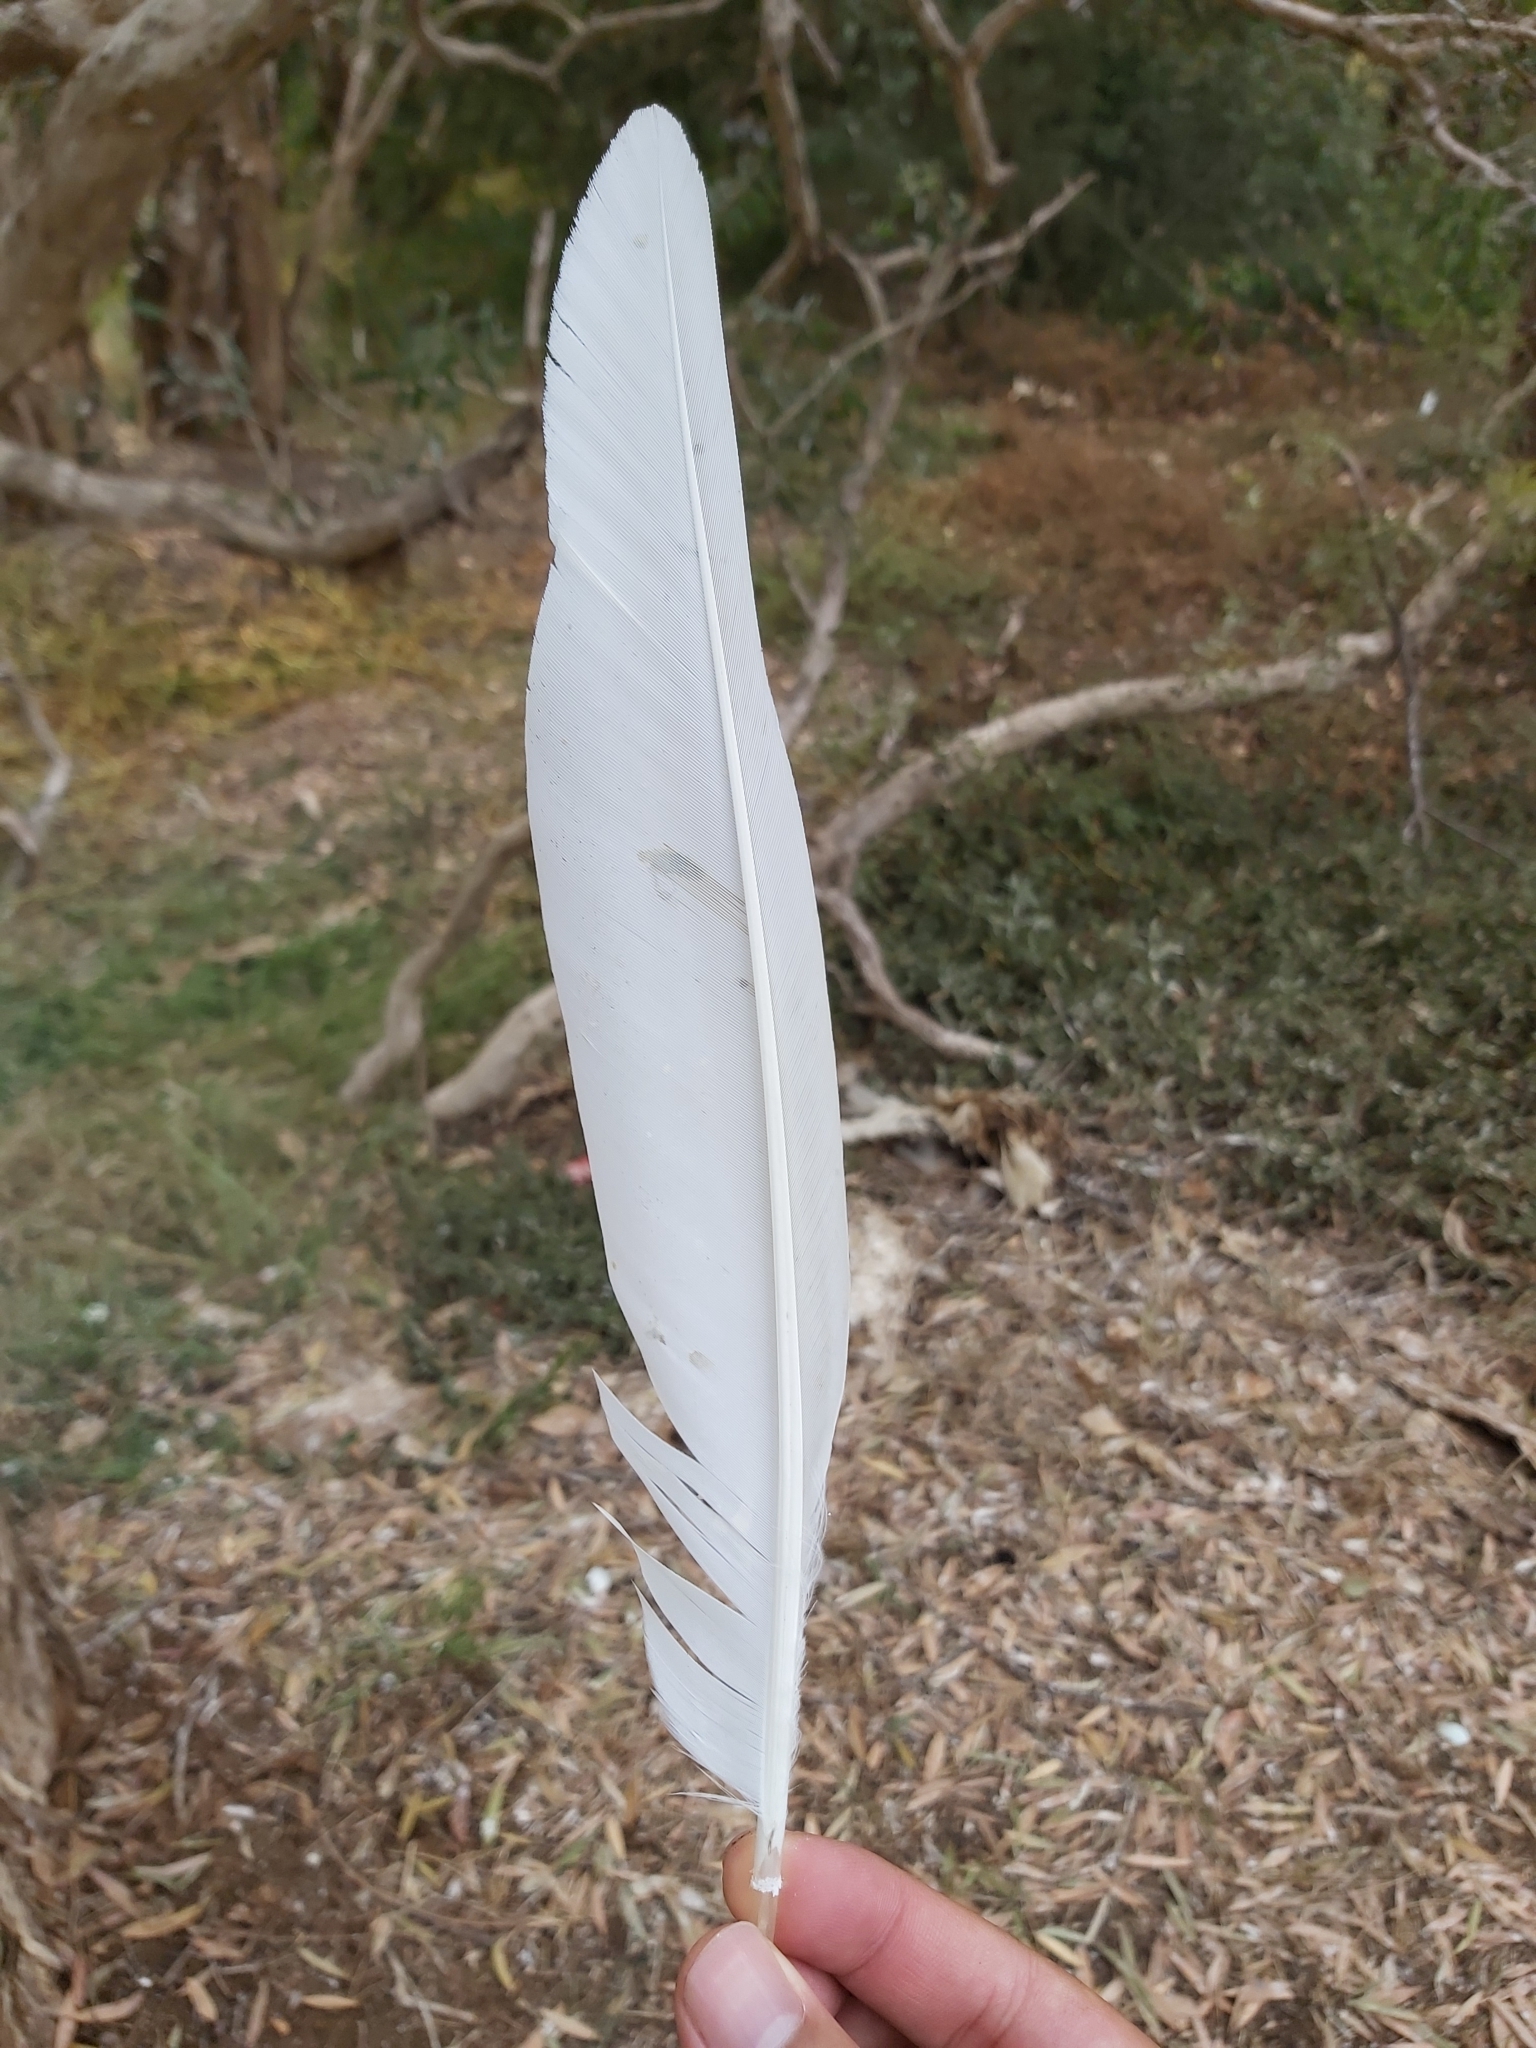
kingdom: Animalia
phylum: Chordata
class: Aves
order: Pelecaniformes
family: Ardeidae
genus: Ardea
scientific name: Ardea modesta
